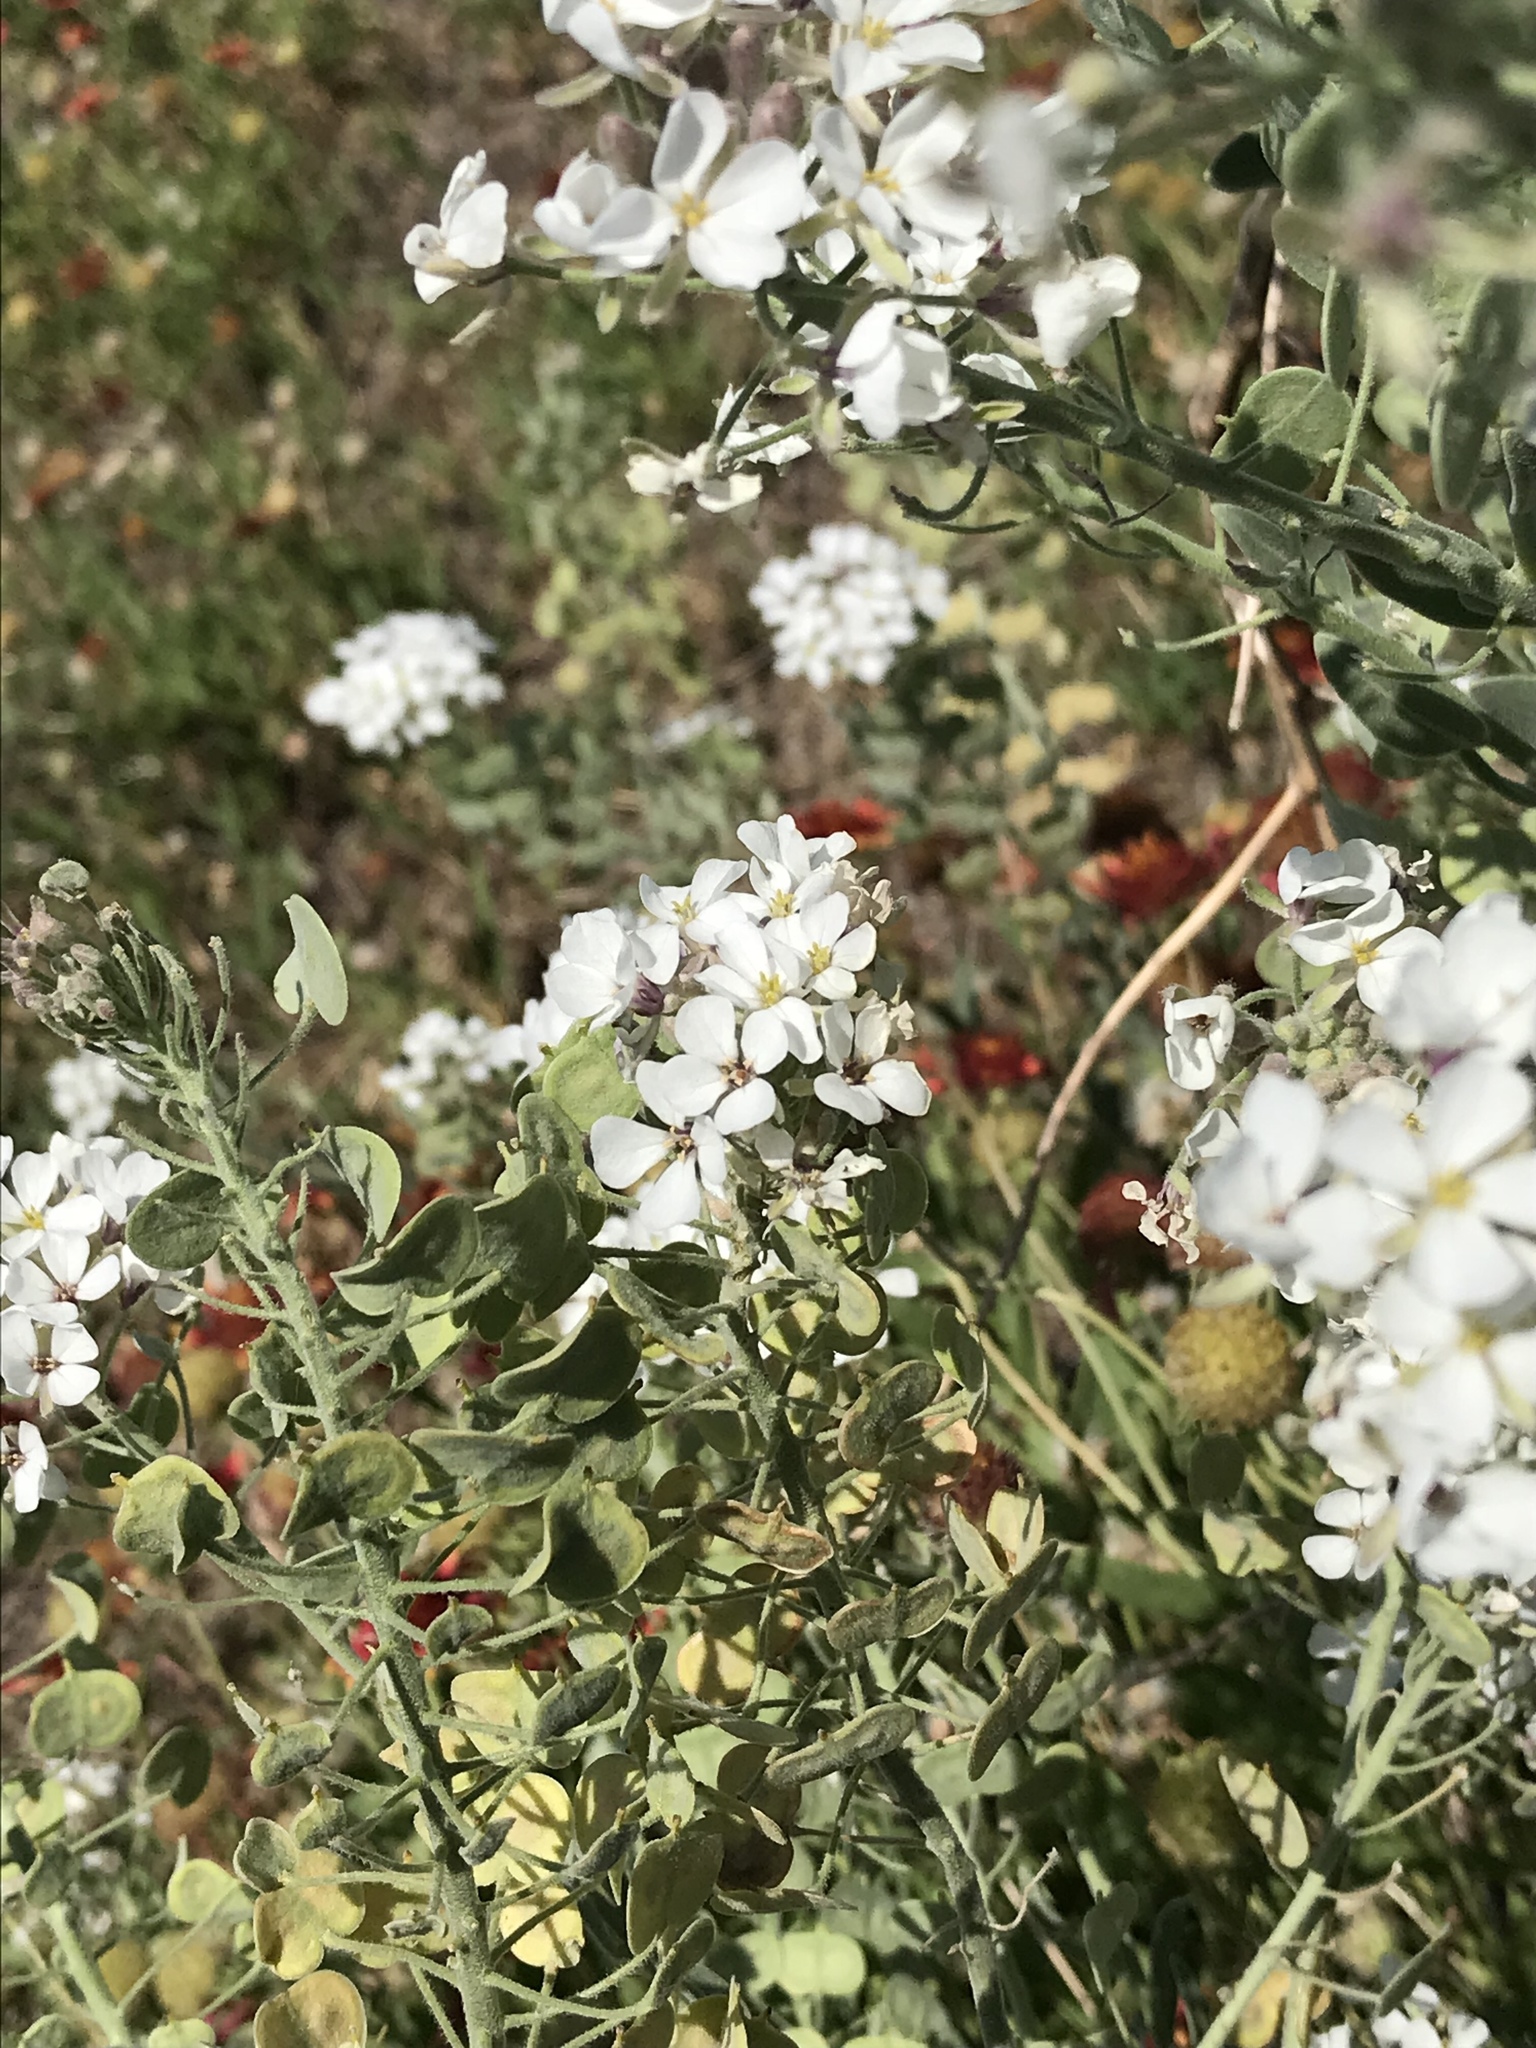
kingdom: Plantae
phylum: Tracheophyta
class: Magnoliopsida
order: Brassicales
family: Brassicaceae
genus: Dimorphocarpa
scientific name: Dimorphocarpa candicans
